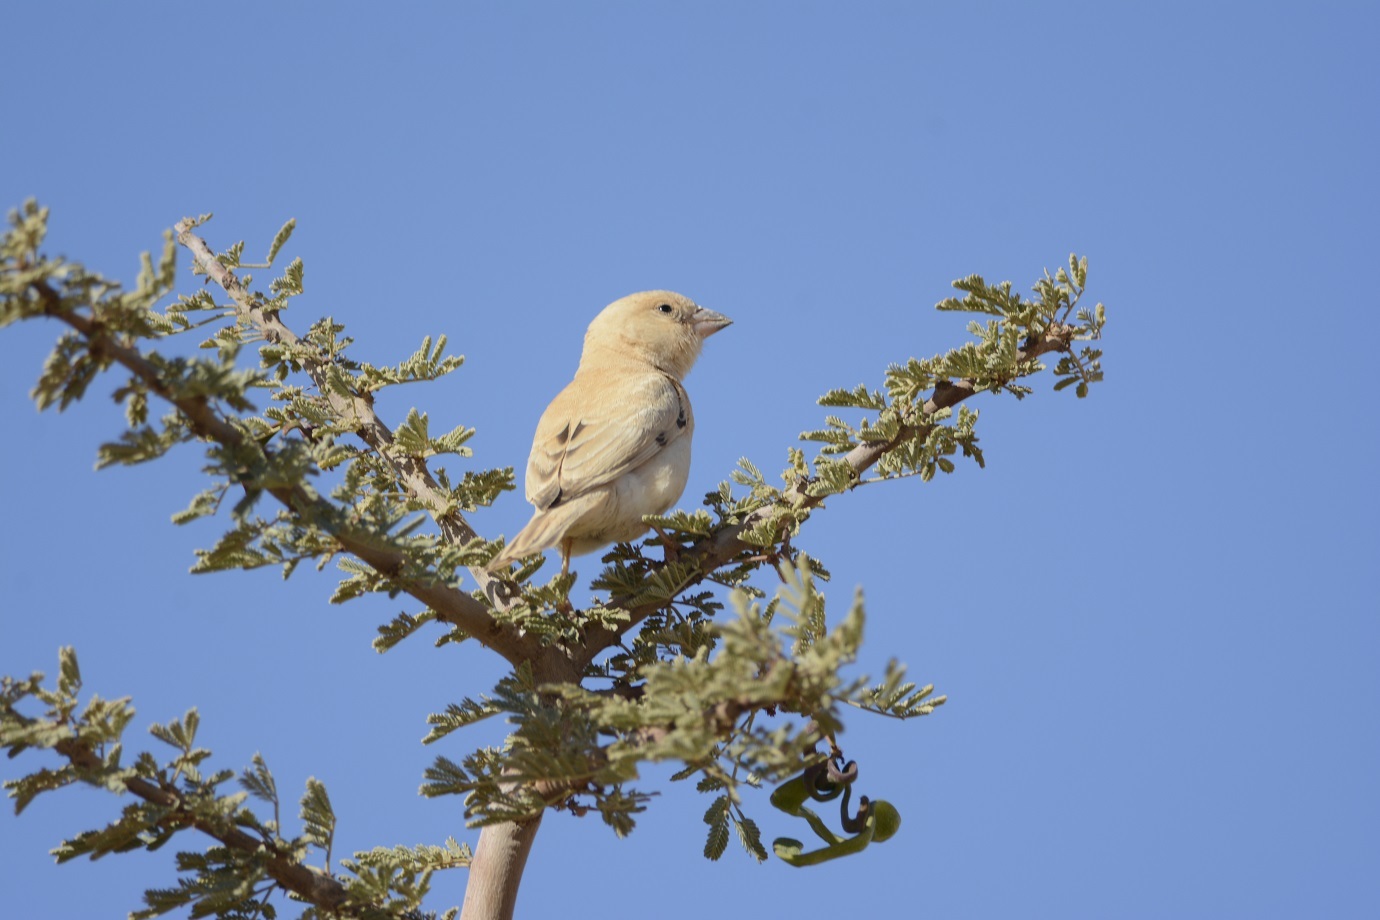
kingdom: Animalia
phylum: Chordata
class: Aves
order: Passeriformes
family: Passeridae
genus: Passer
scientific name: Passer simplex
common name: Desert sparrow
